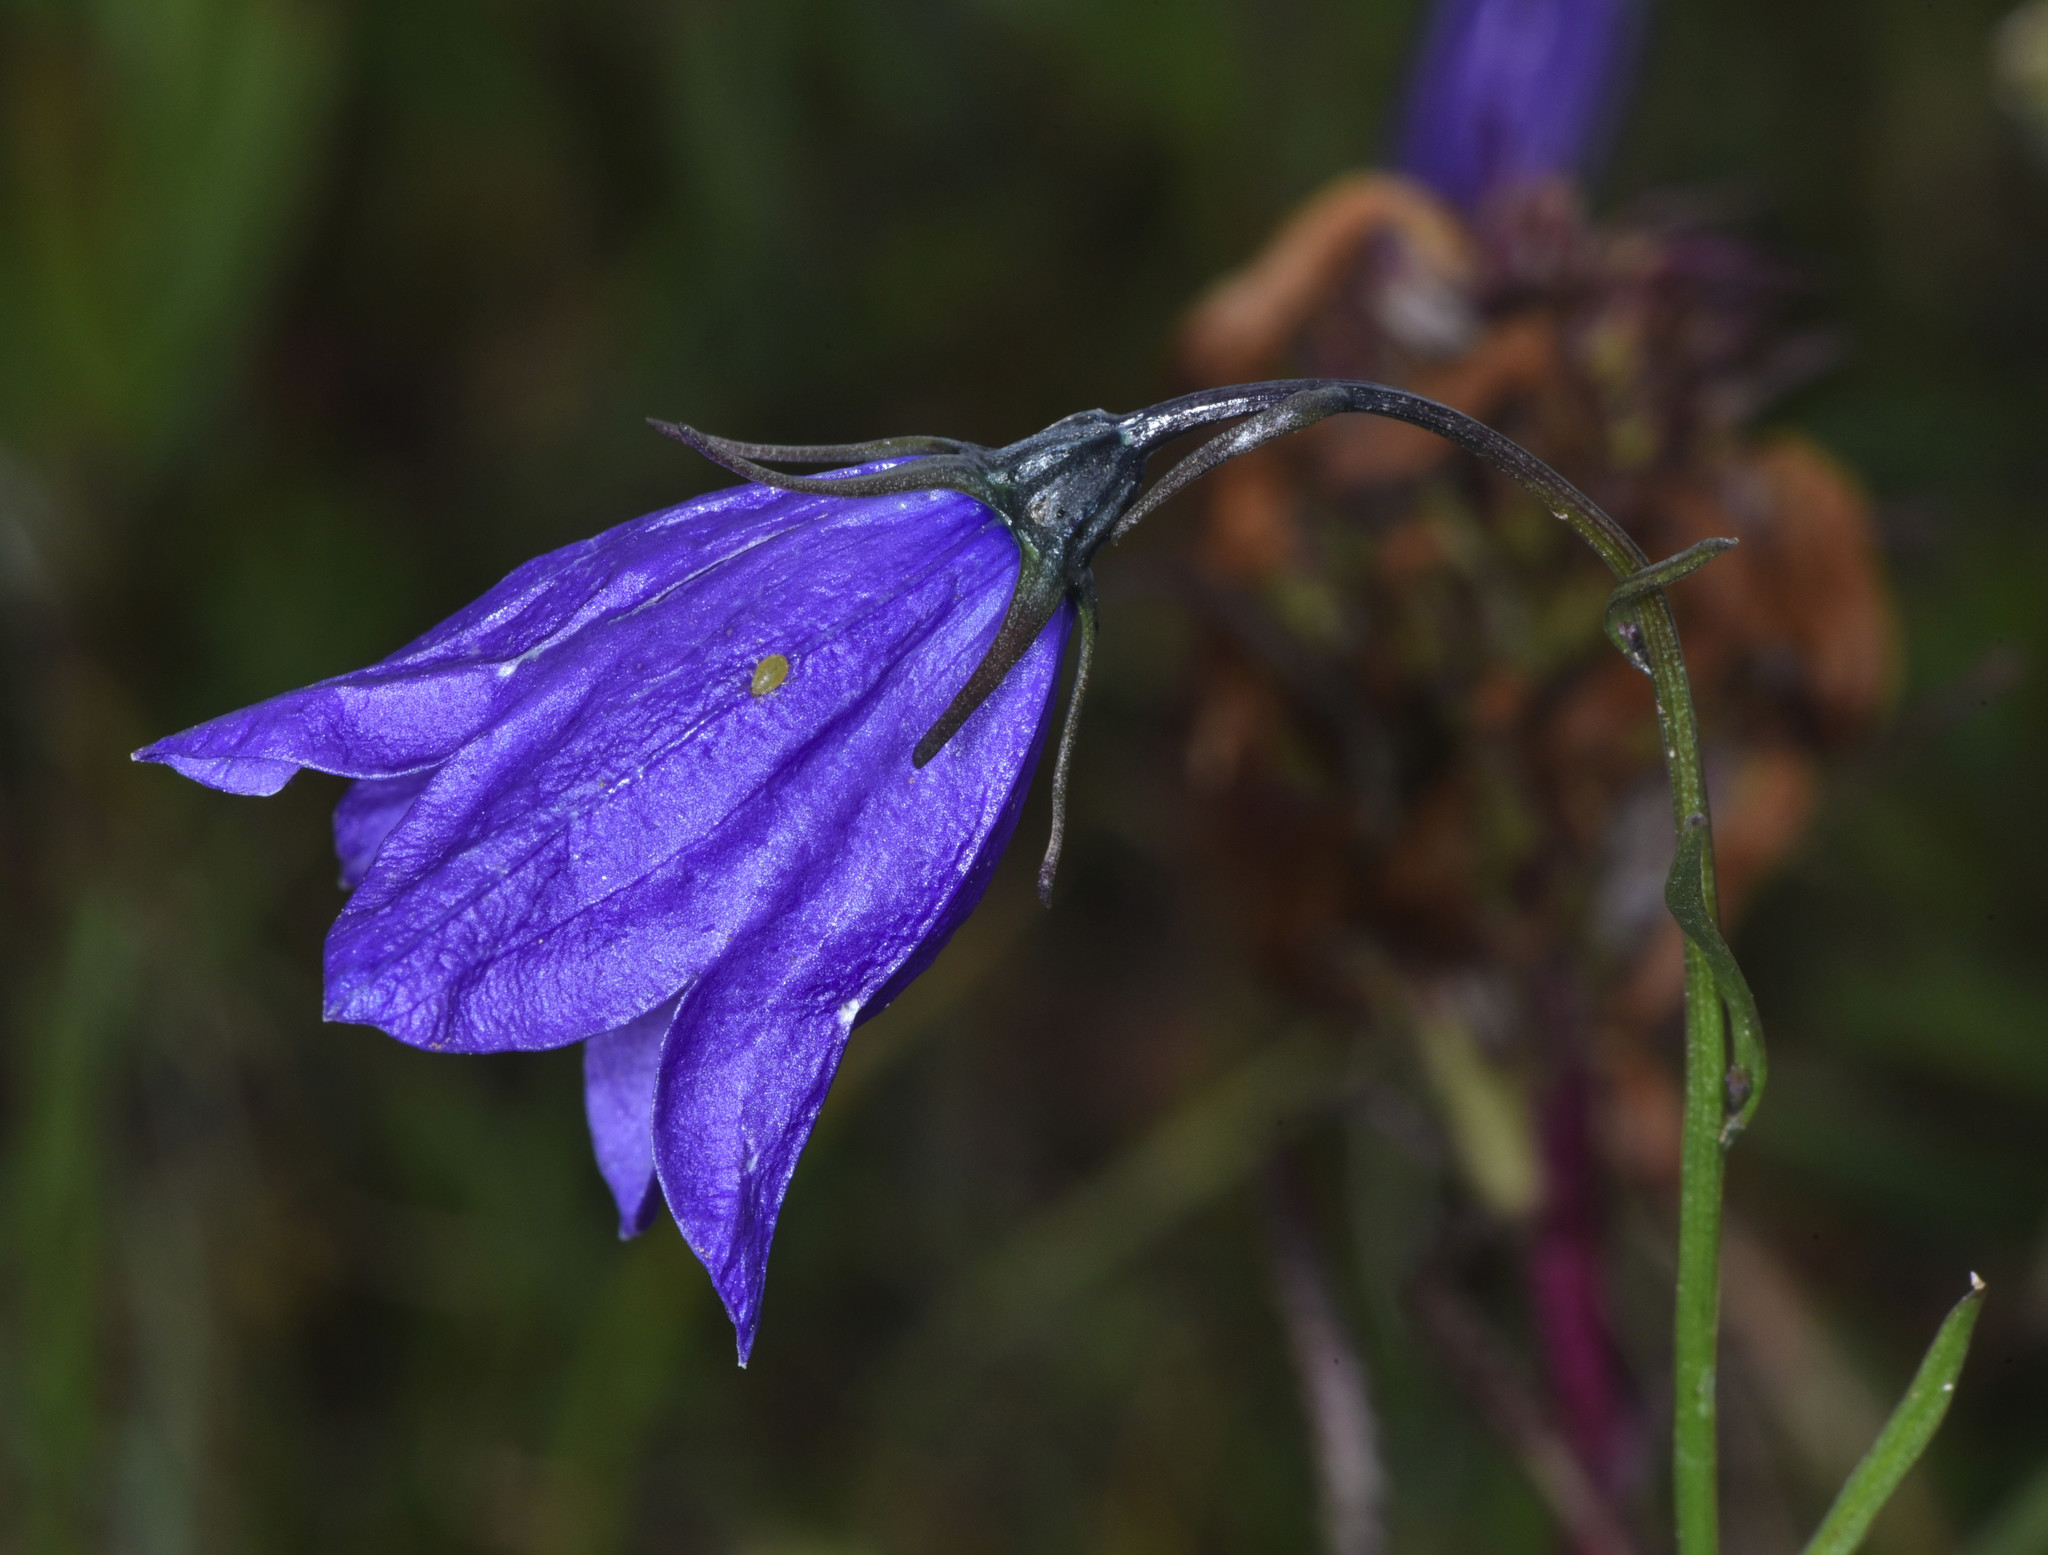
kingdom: Plantae
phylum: Tracheophyta
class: Magnoliopsida
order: Asterales
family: Campanulaceae
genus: Campanula
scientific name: Campanula petiolata
